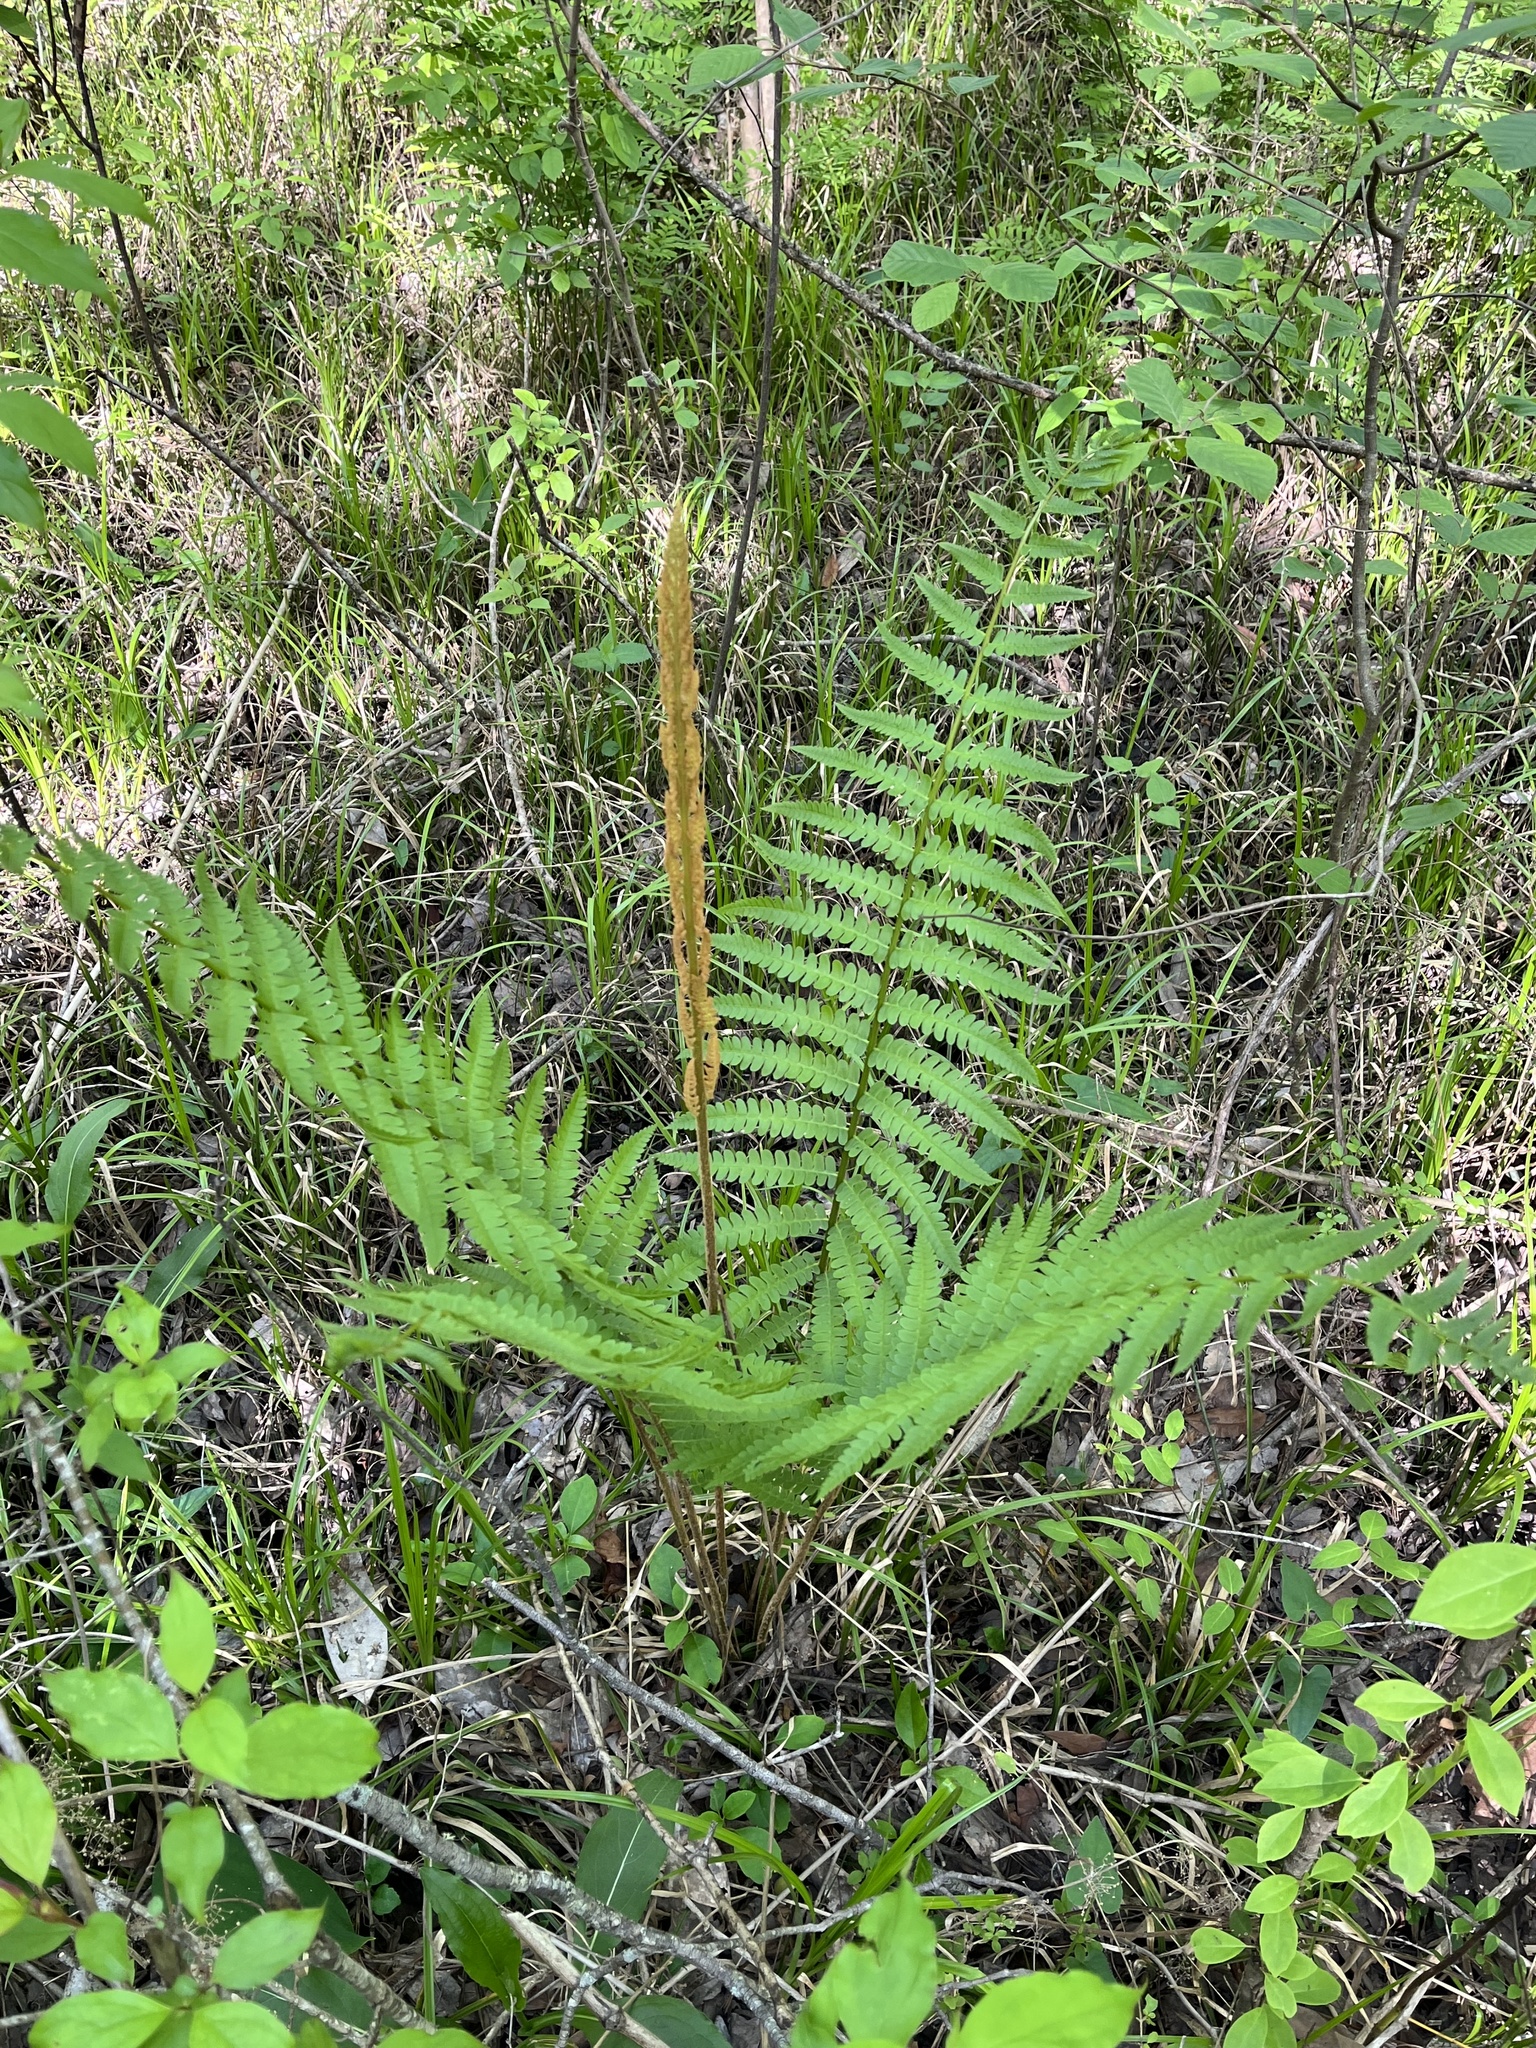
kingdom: Plantae
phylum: Tracheophyta
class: Polypodiopsida
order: Osmundales
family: Osmundaceae
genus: Osmundastrum
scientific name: Osmundastrum cinnamomeum
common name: Cinnamon fern
